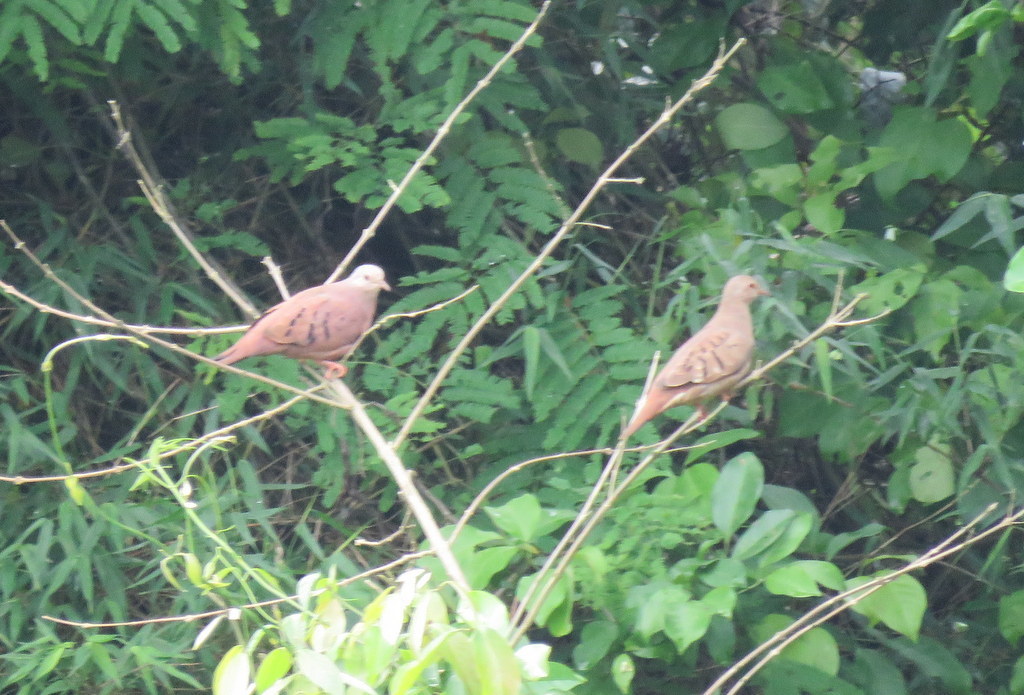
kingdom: Animalia
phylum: Chordata
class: Aves
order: Columbiformes
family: Columbidae
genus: Columbina
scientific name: Columbina talpacoti
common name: Ruddy ground dove
